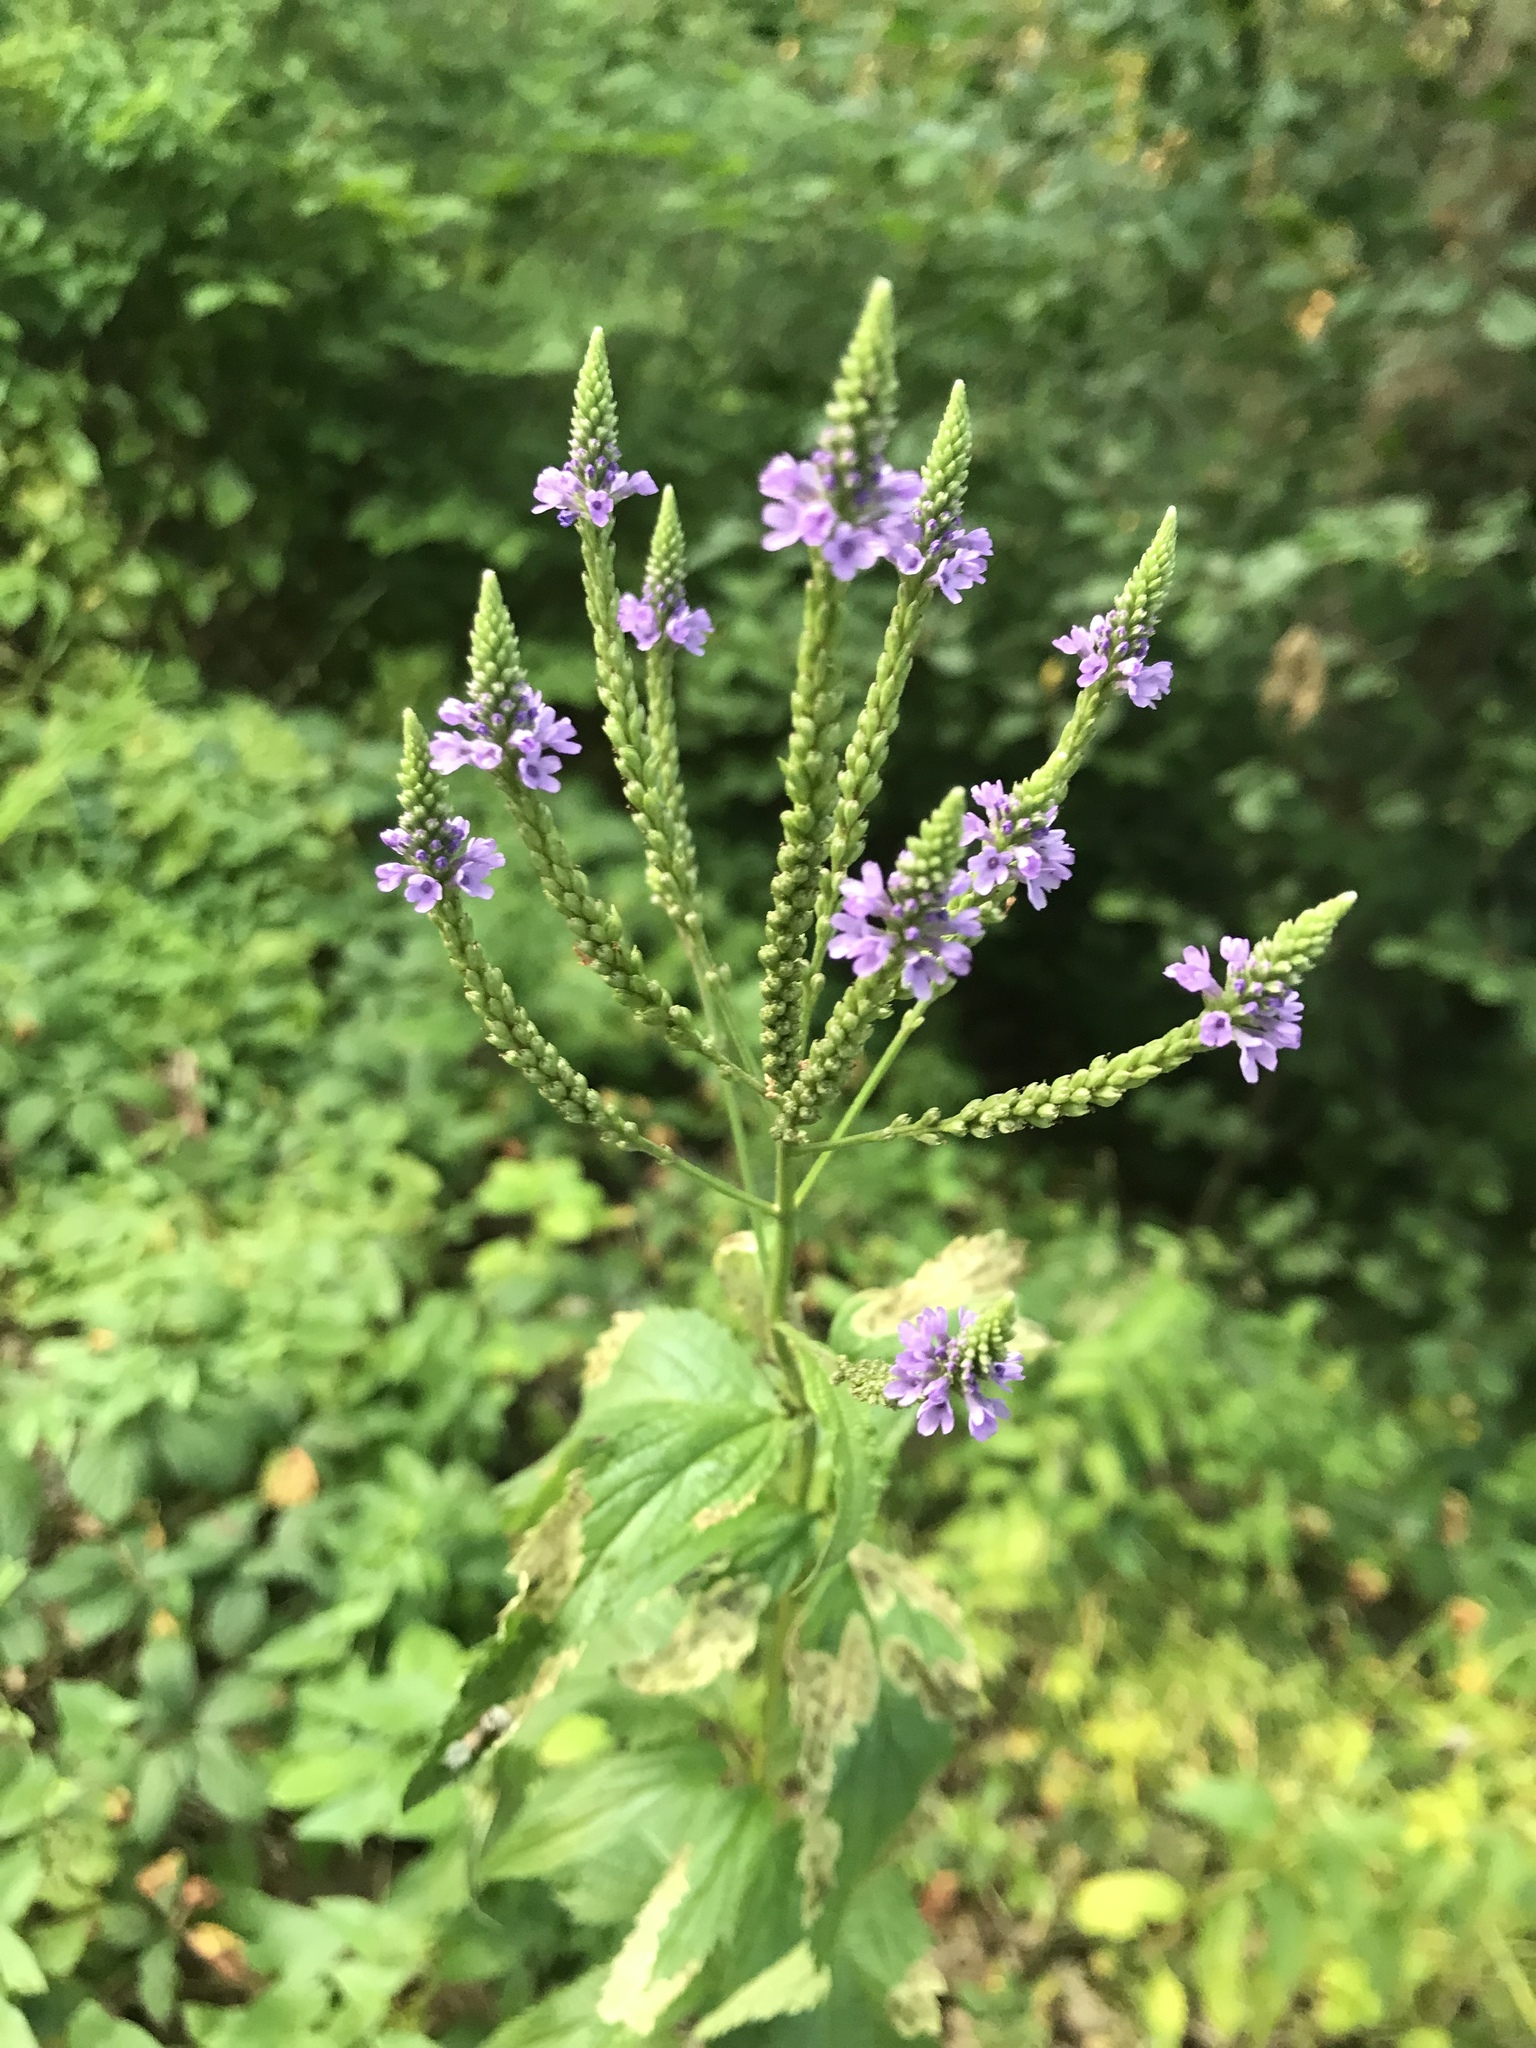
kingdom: Plantae
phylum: Tracheophyta
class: Magnoliopsida
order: Lamiales
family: Verbenaceae
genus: Verbena
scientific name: Verbena hastata
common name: American blue vervain
